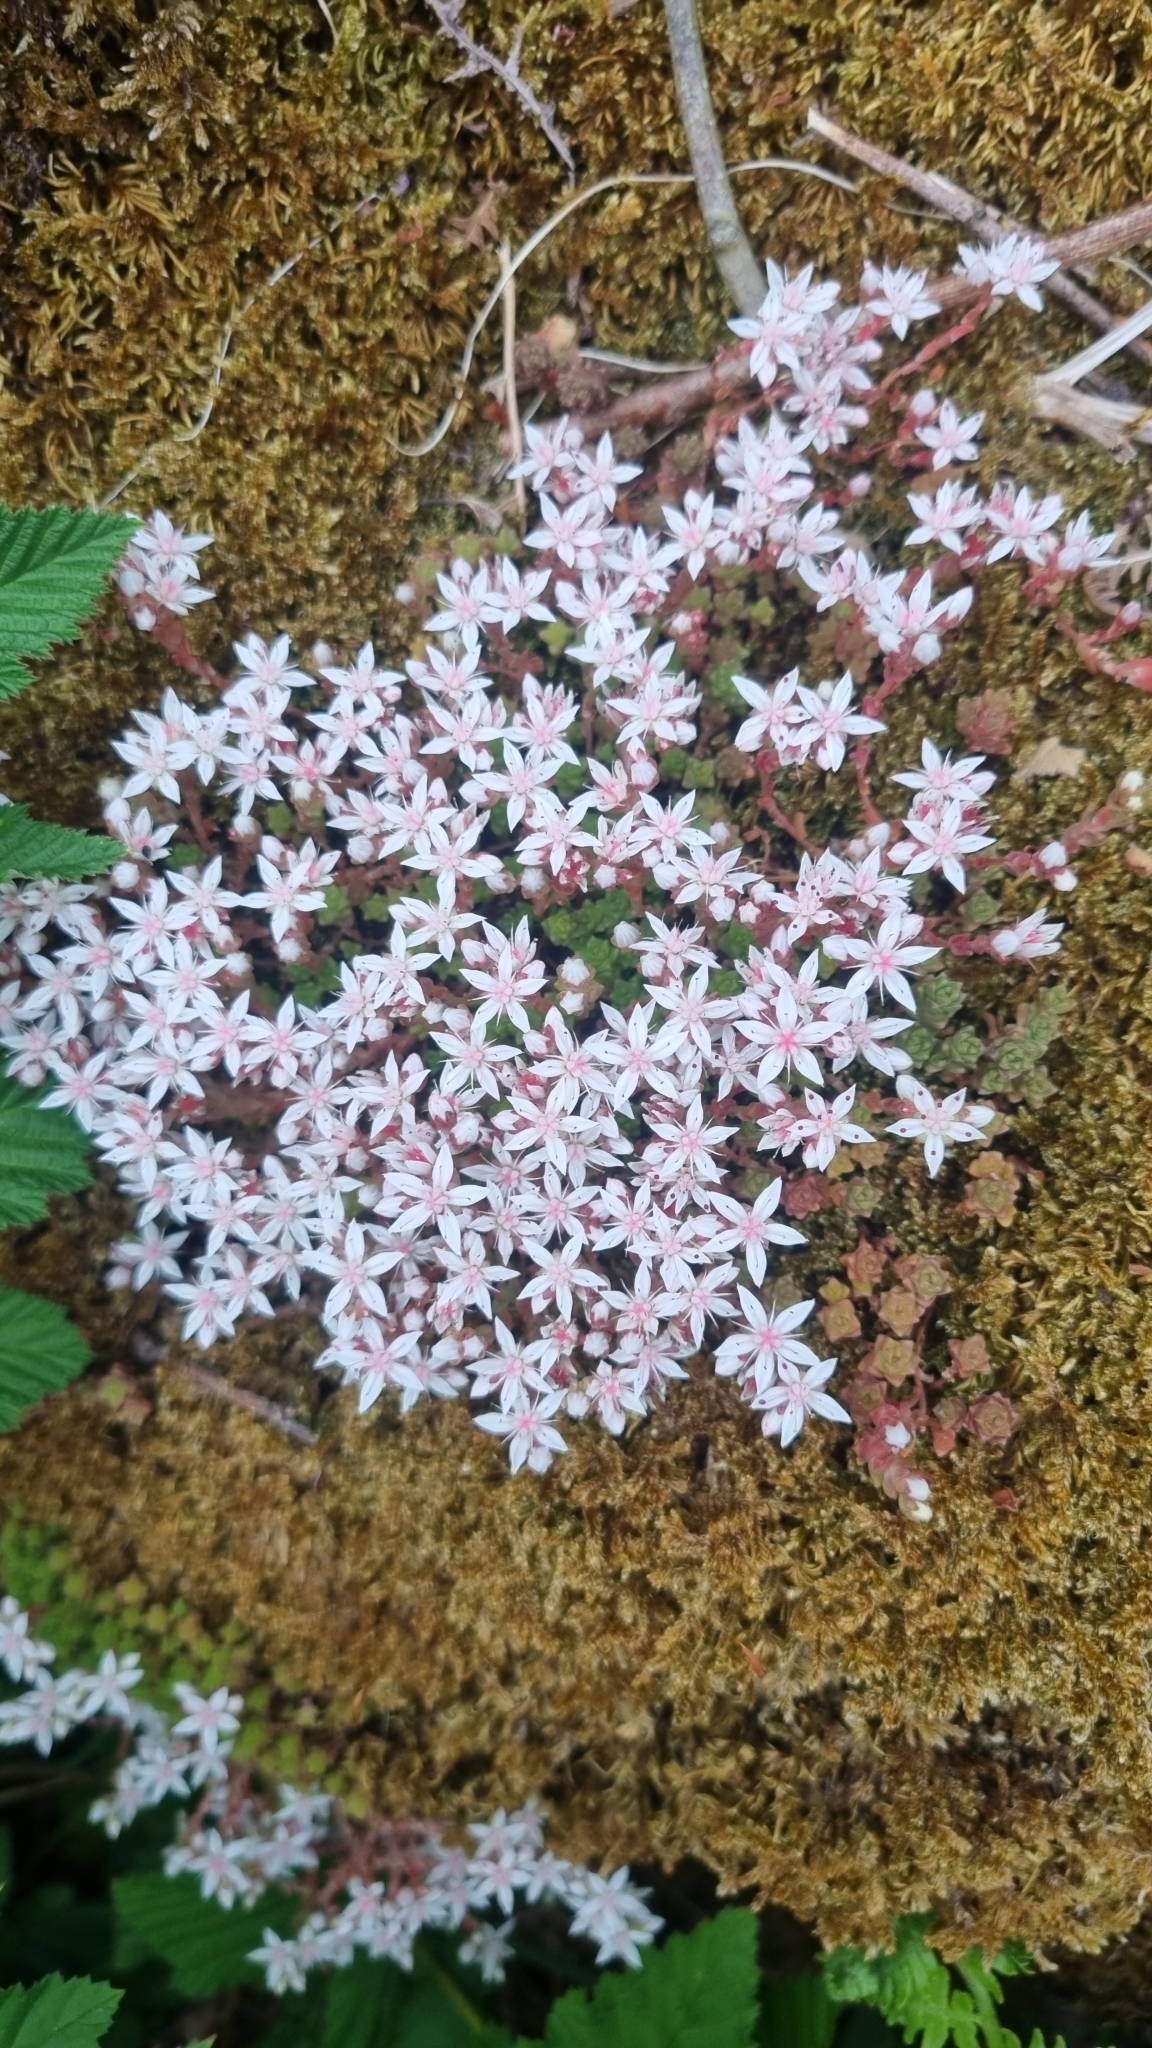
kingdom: Plantae
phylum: Tracheophyta
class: Magnoliopsida
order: Saxifragales
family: Crassulaceae
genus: Sedum
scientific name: Sedum anglicum
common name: English stonecrop
